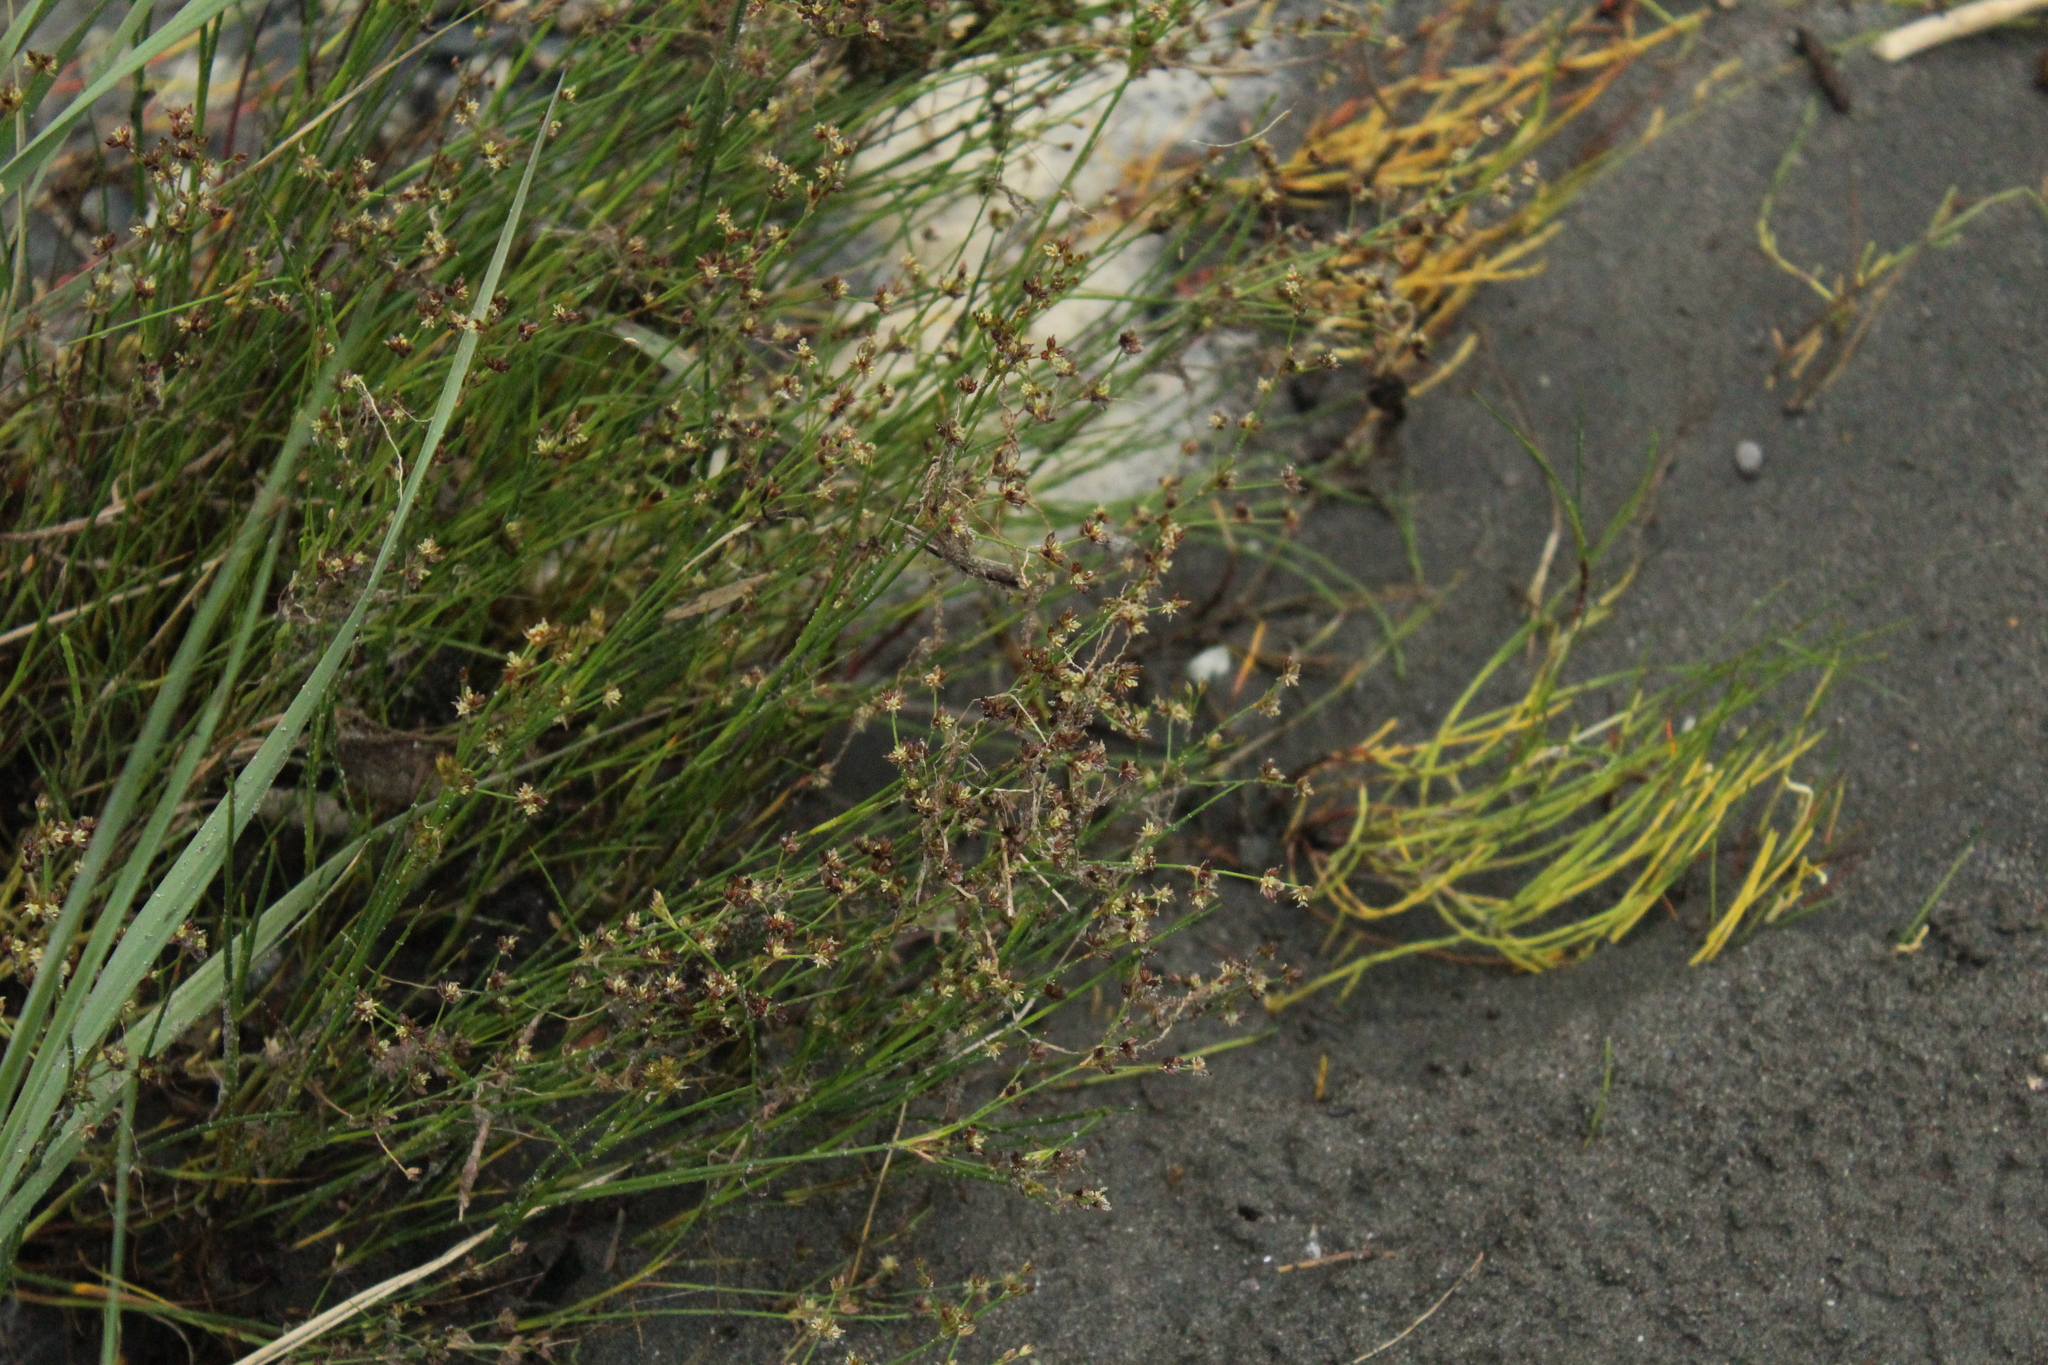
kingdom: Plantae
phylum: Tracheophyta
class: Liliopsida
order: Poales
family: Juncaceae
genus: Juncus
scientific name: Juncus articulatus
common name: Jointed rush
